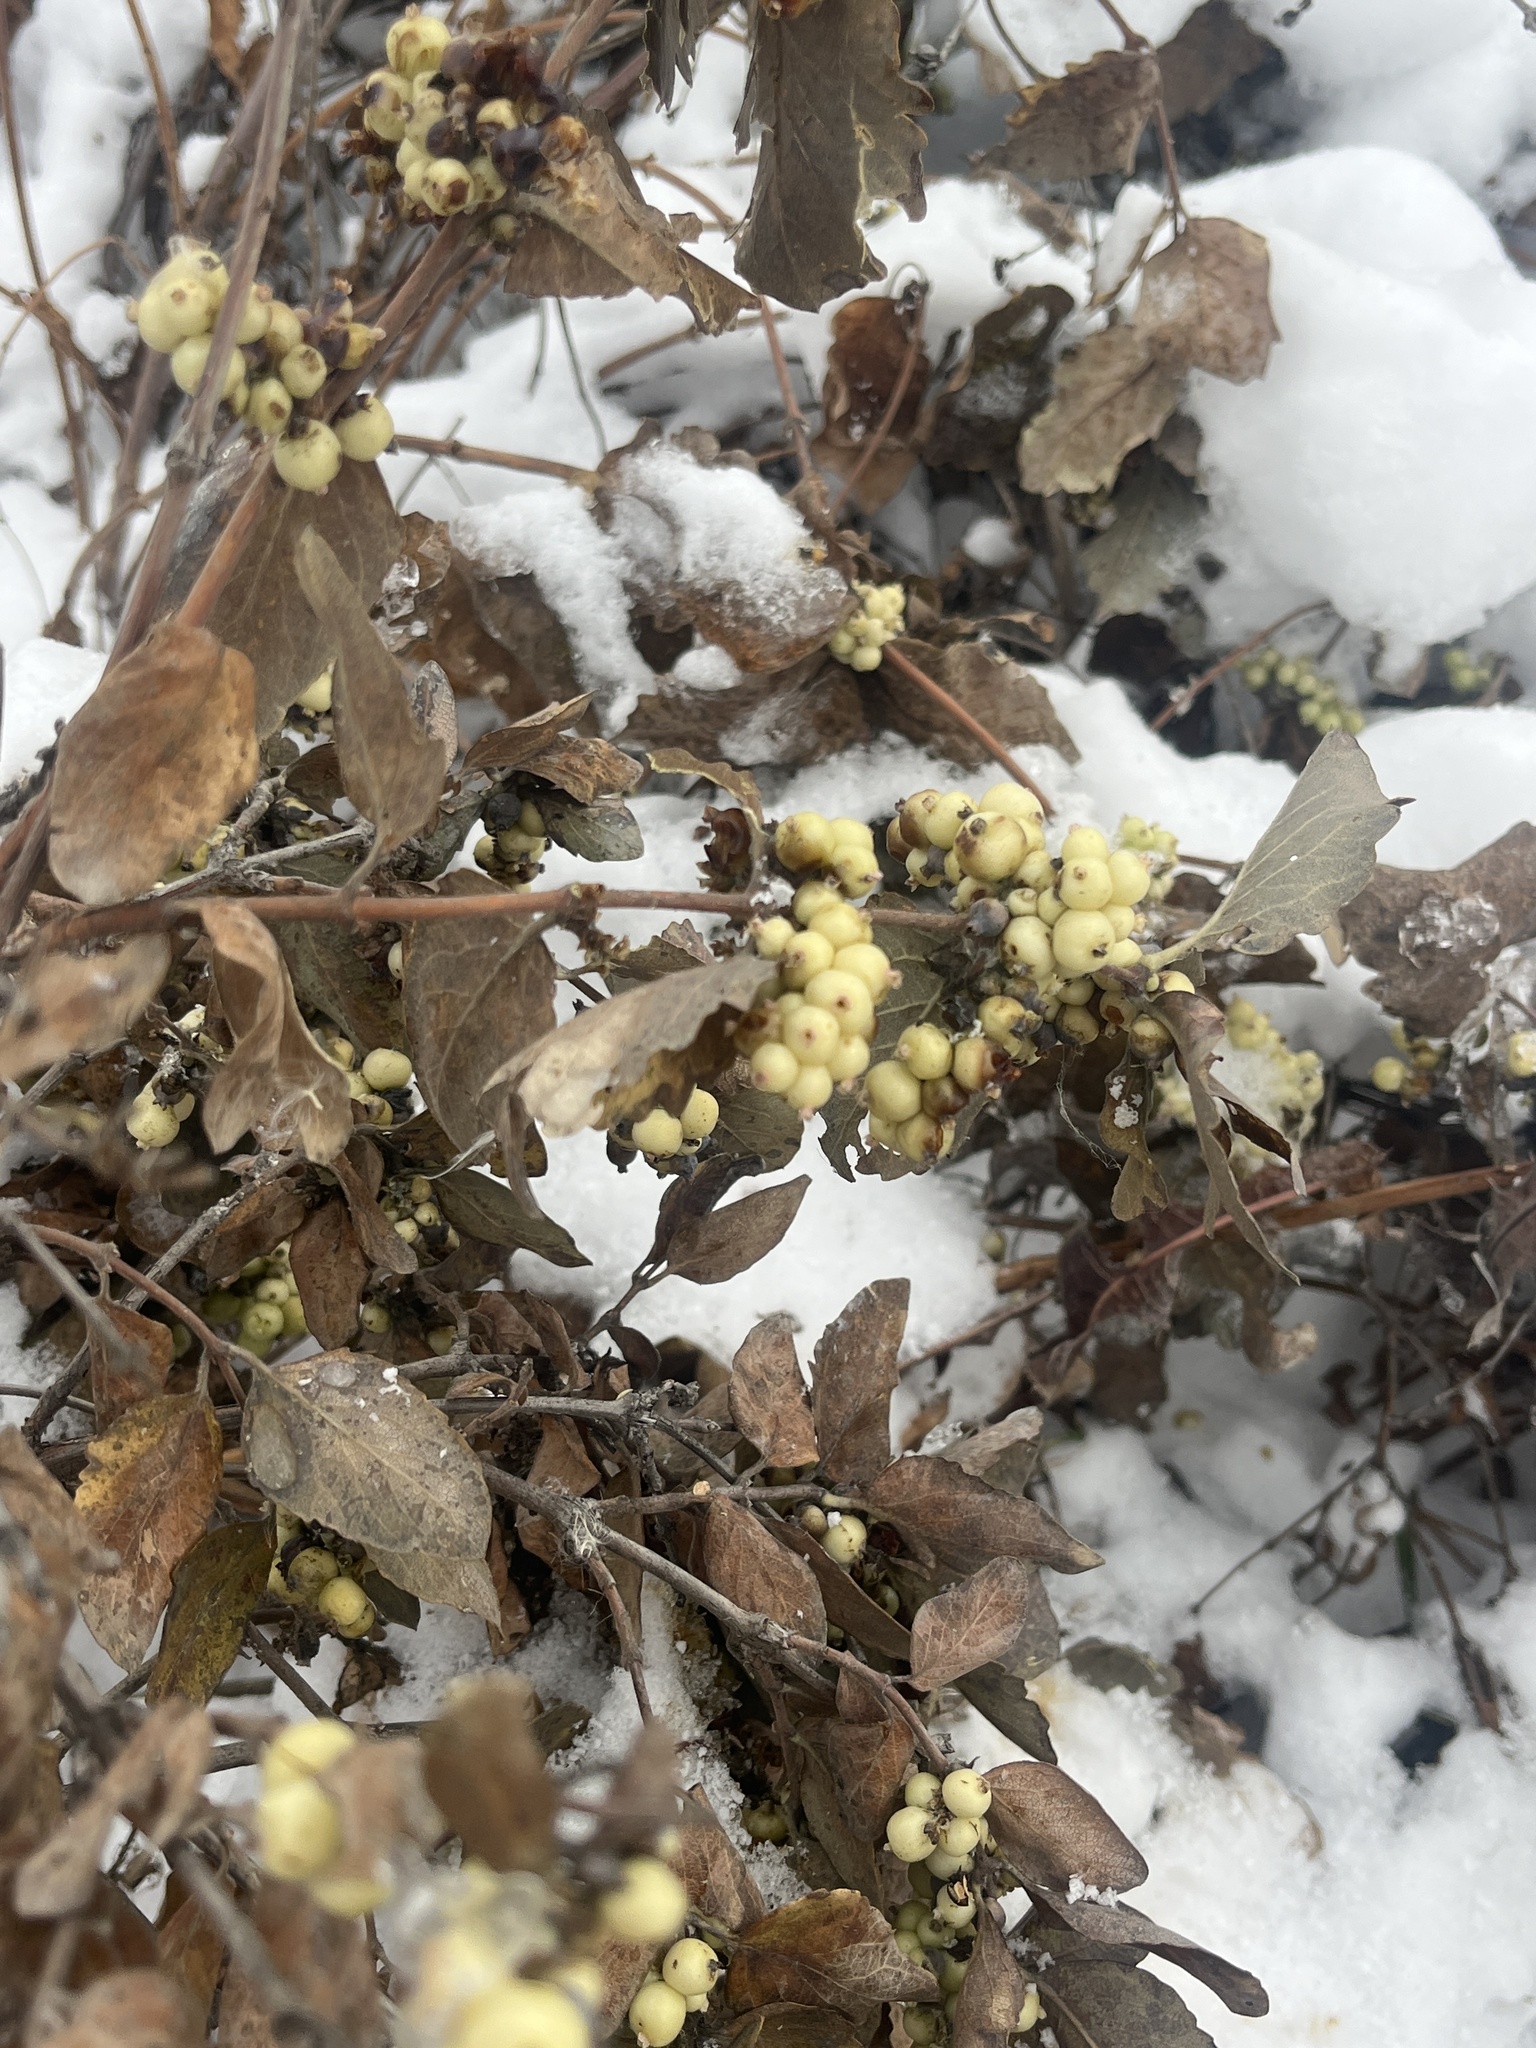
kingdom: Plantae
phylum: Tracheophyta
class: Magnoliopsida
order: Dipsacales
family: Caprifoliaceae
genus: Symphoricarpos
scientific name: Symphoricarpos occidentalis
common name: Wolfberry
